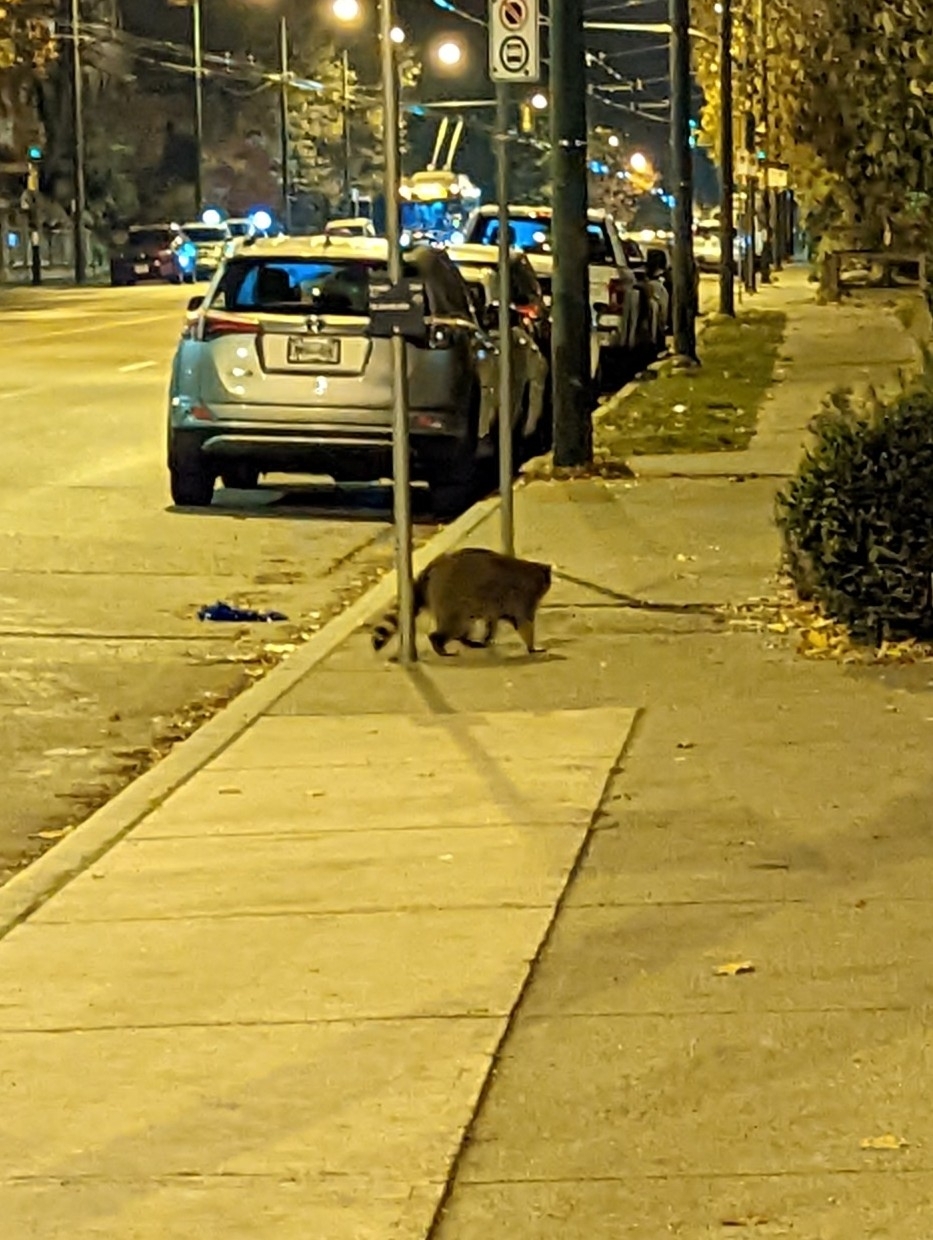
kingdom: Animalia
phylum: Chordata
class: Mammalia
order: Carnivora
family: Procyonidae
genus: Procyon
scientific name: Procyon lotor
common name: Raccoon
